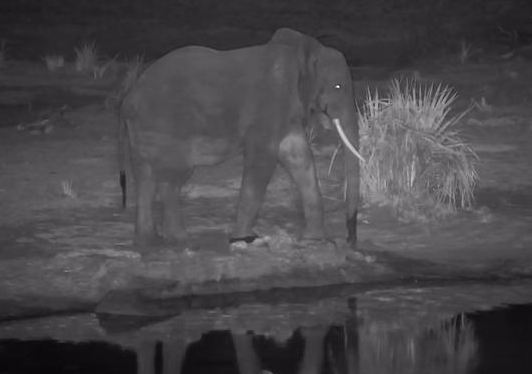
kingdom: Animalia
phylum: Chordata
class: Mammalia
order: Proboscidea
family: Elephantidae
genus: Loxodonta
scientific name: Loxodonta africana
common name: African elephant
